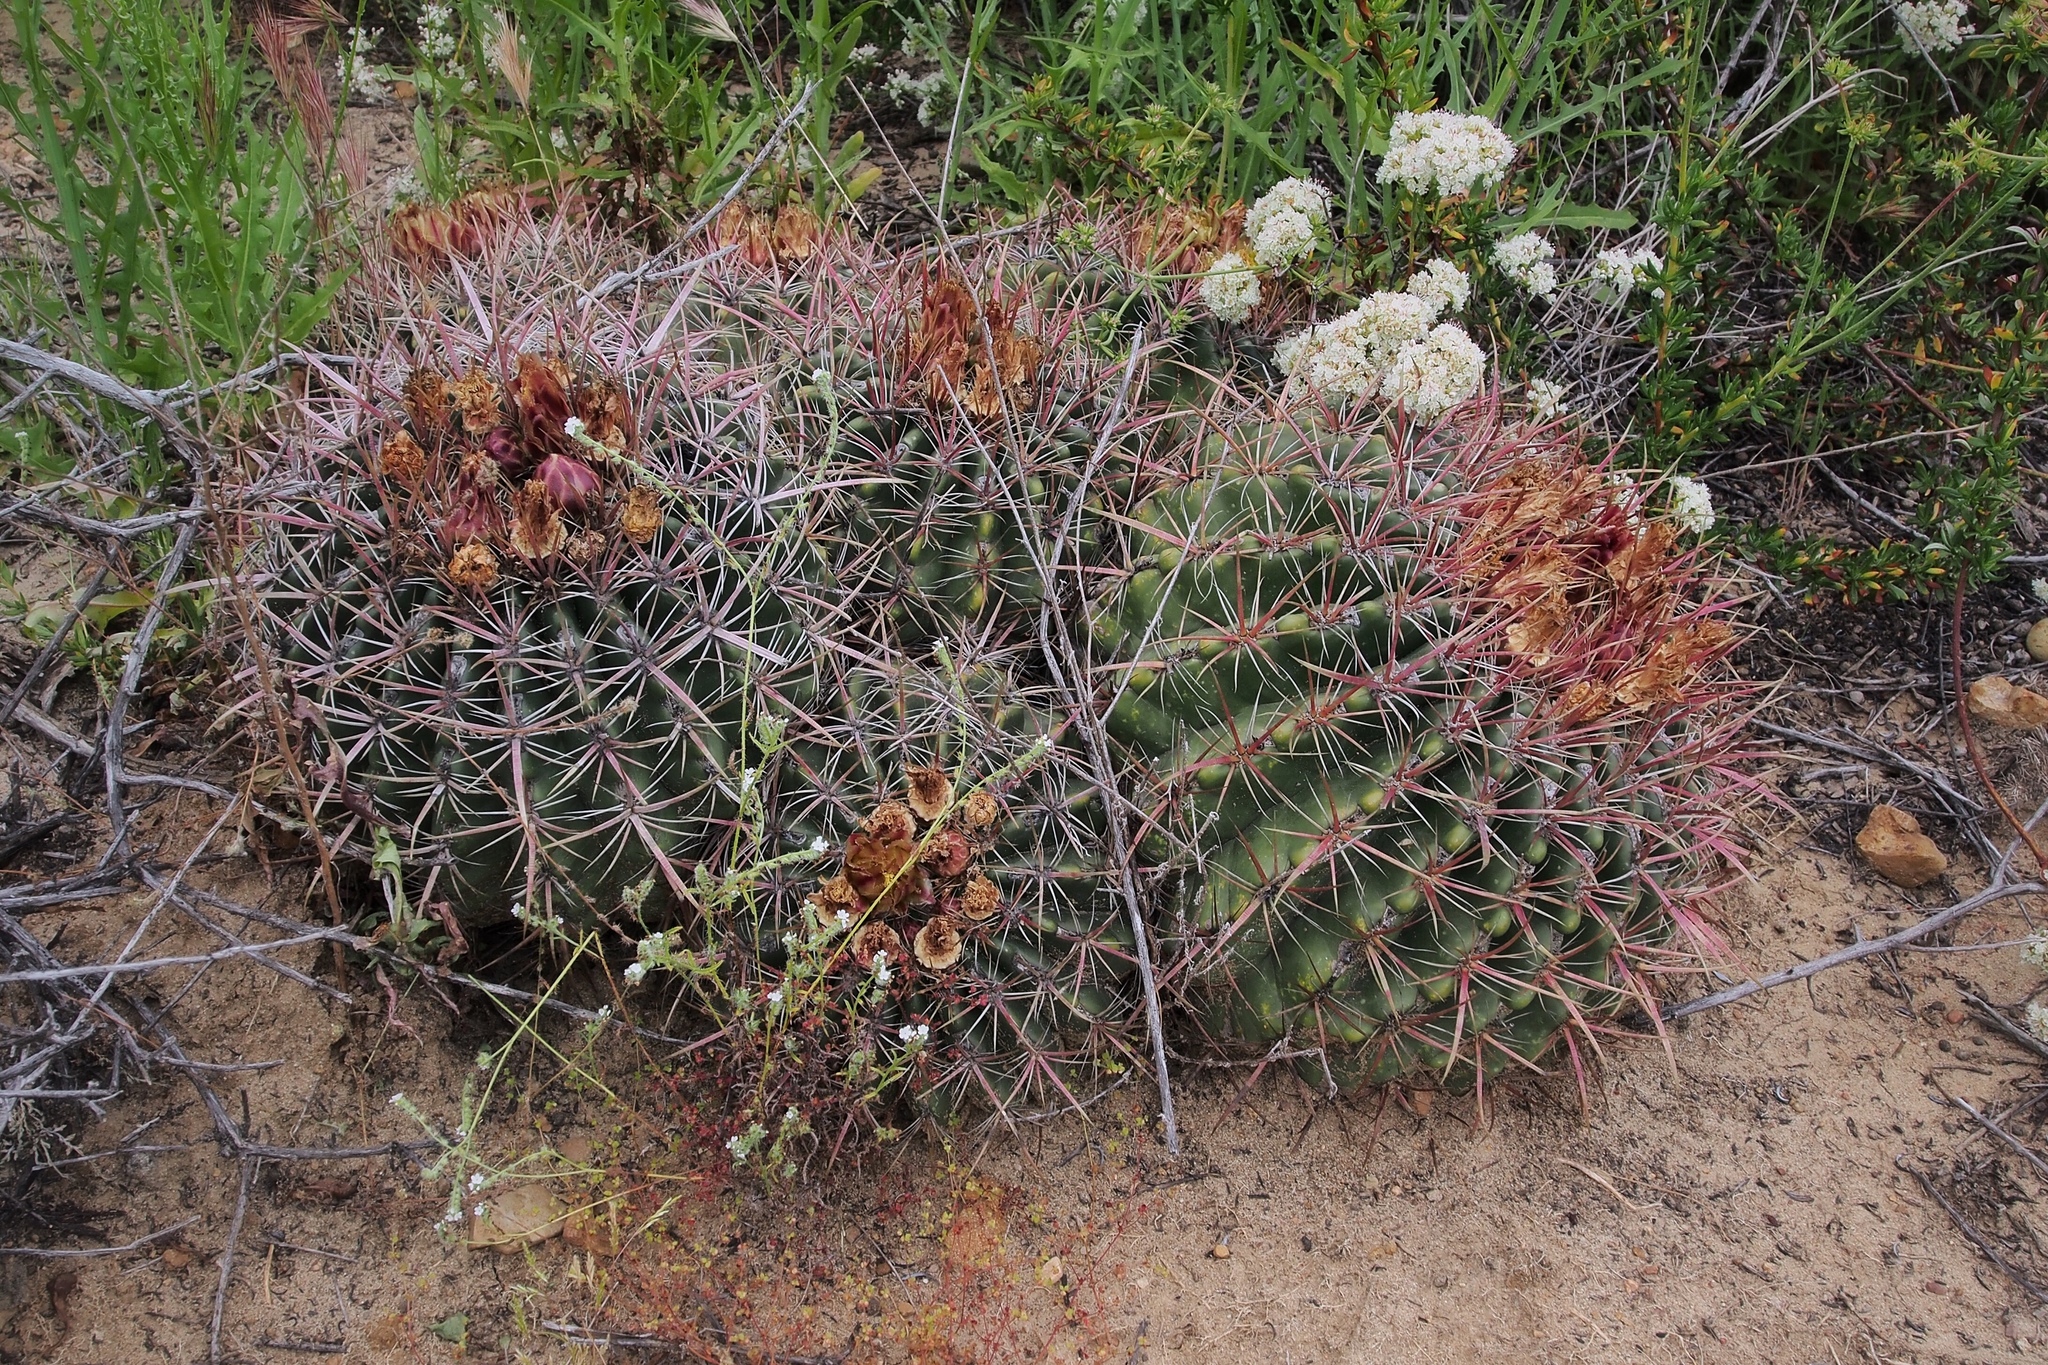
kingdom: Plantae
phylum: Tracheophyta
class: Magnoliopsida
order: Caryophyllales
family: Cactaceae
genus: Ferocactus
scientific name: Ferocactus viridescens
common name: San diego barrel cactus
